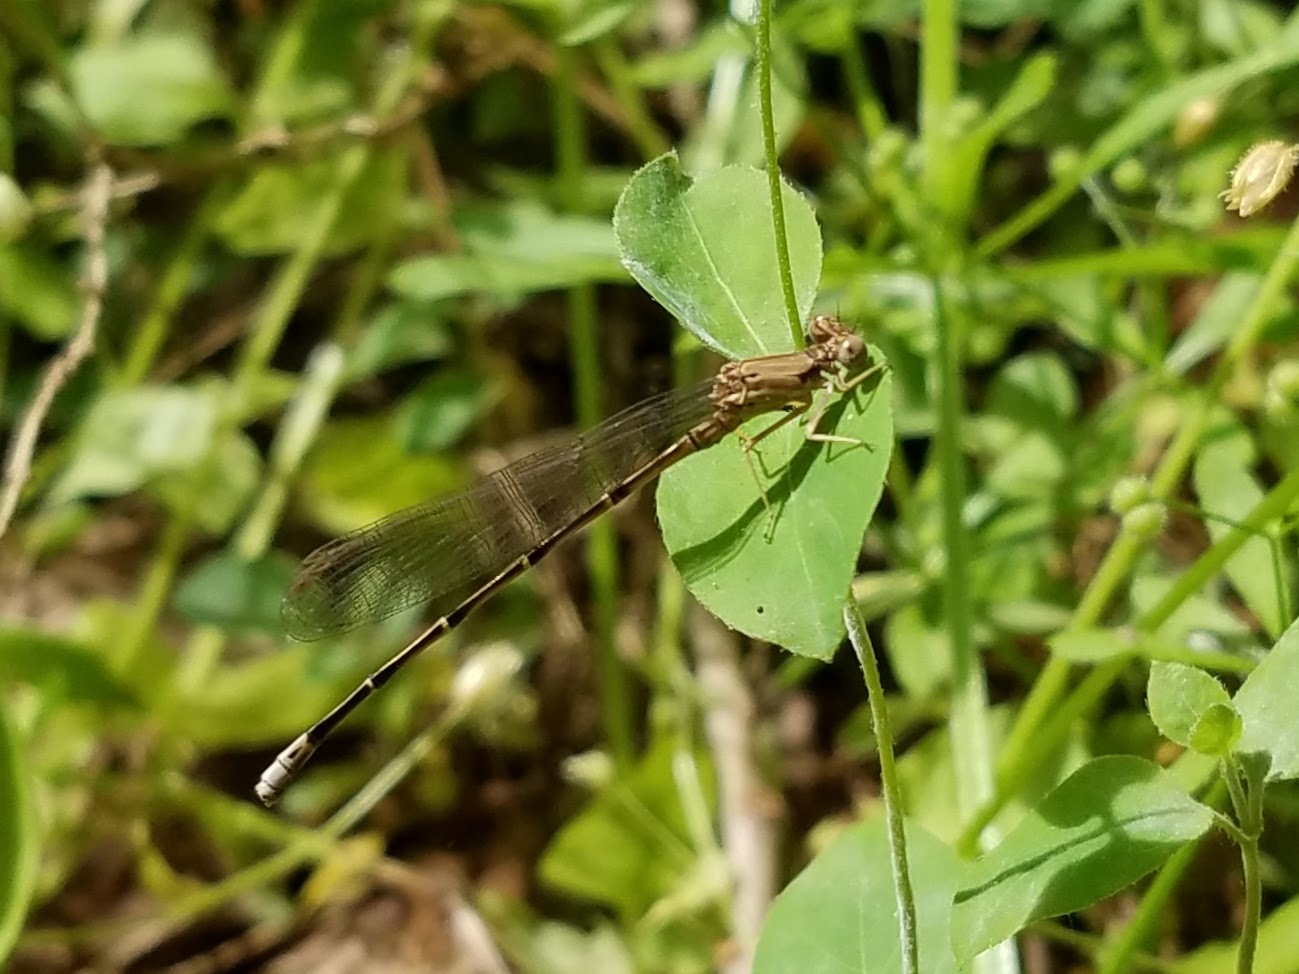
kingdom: Animalia
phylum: Arthropoda
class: Insecta
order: Odonata
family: Coenagrionidae
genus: Argia
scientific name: Argia moesta
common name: Powdered dancer
